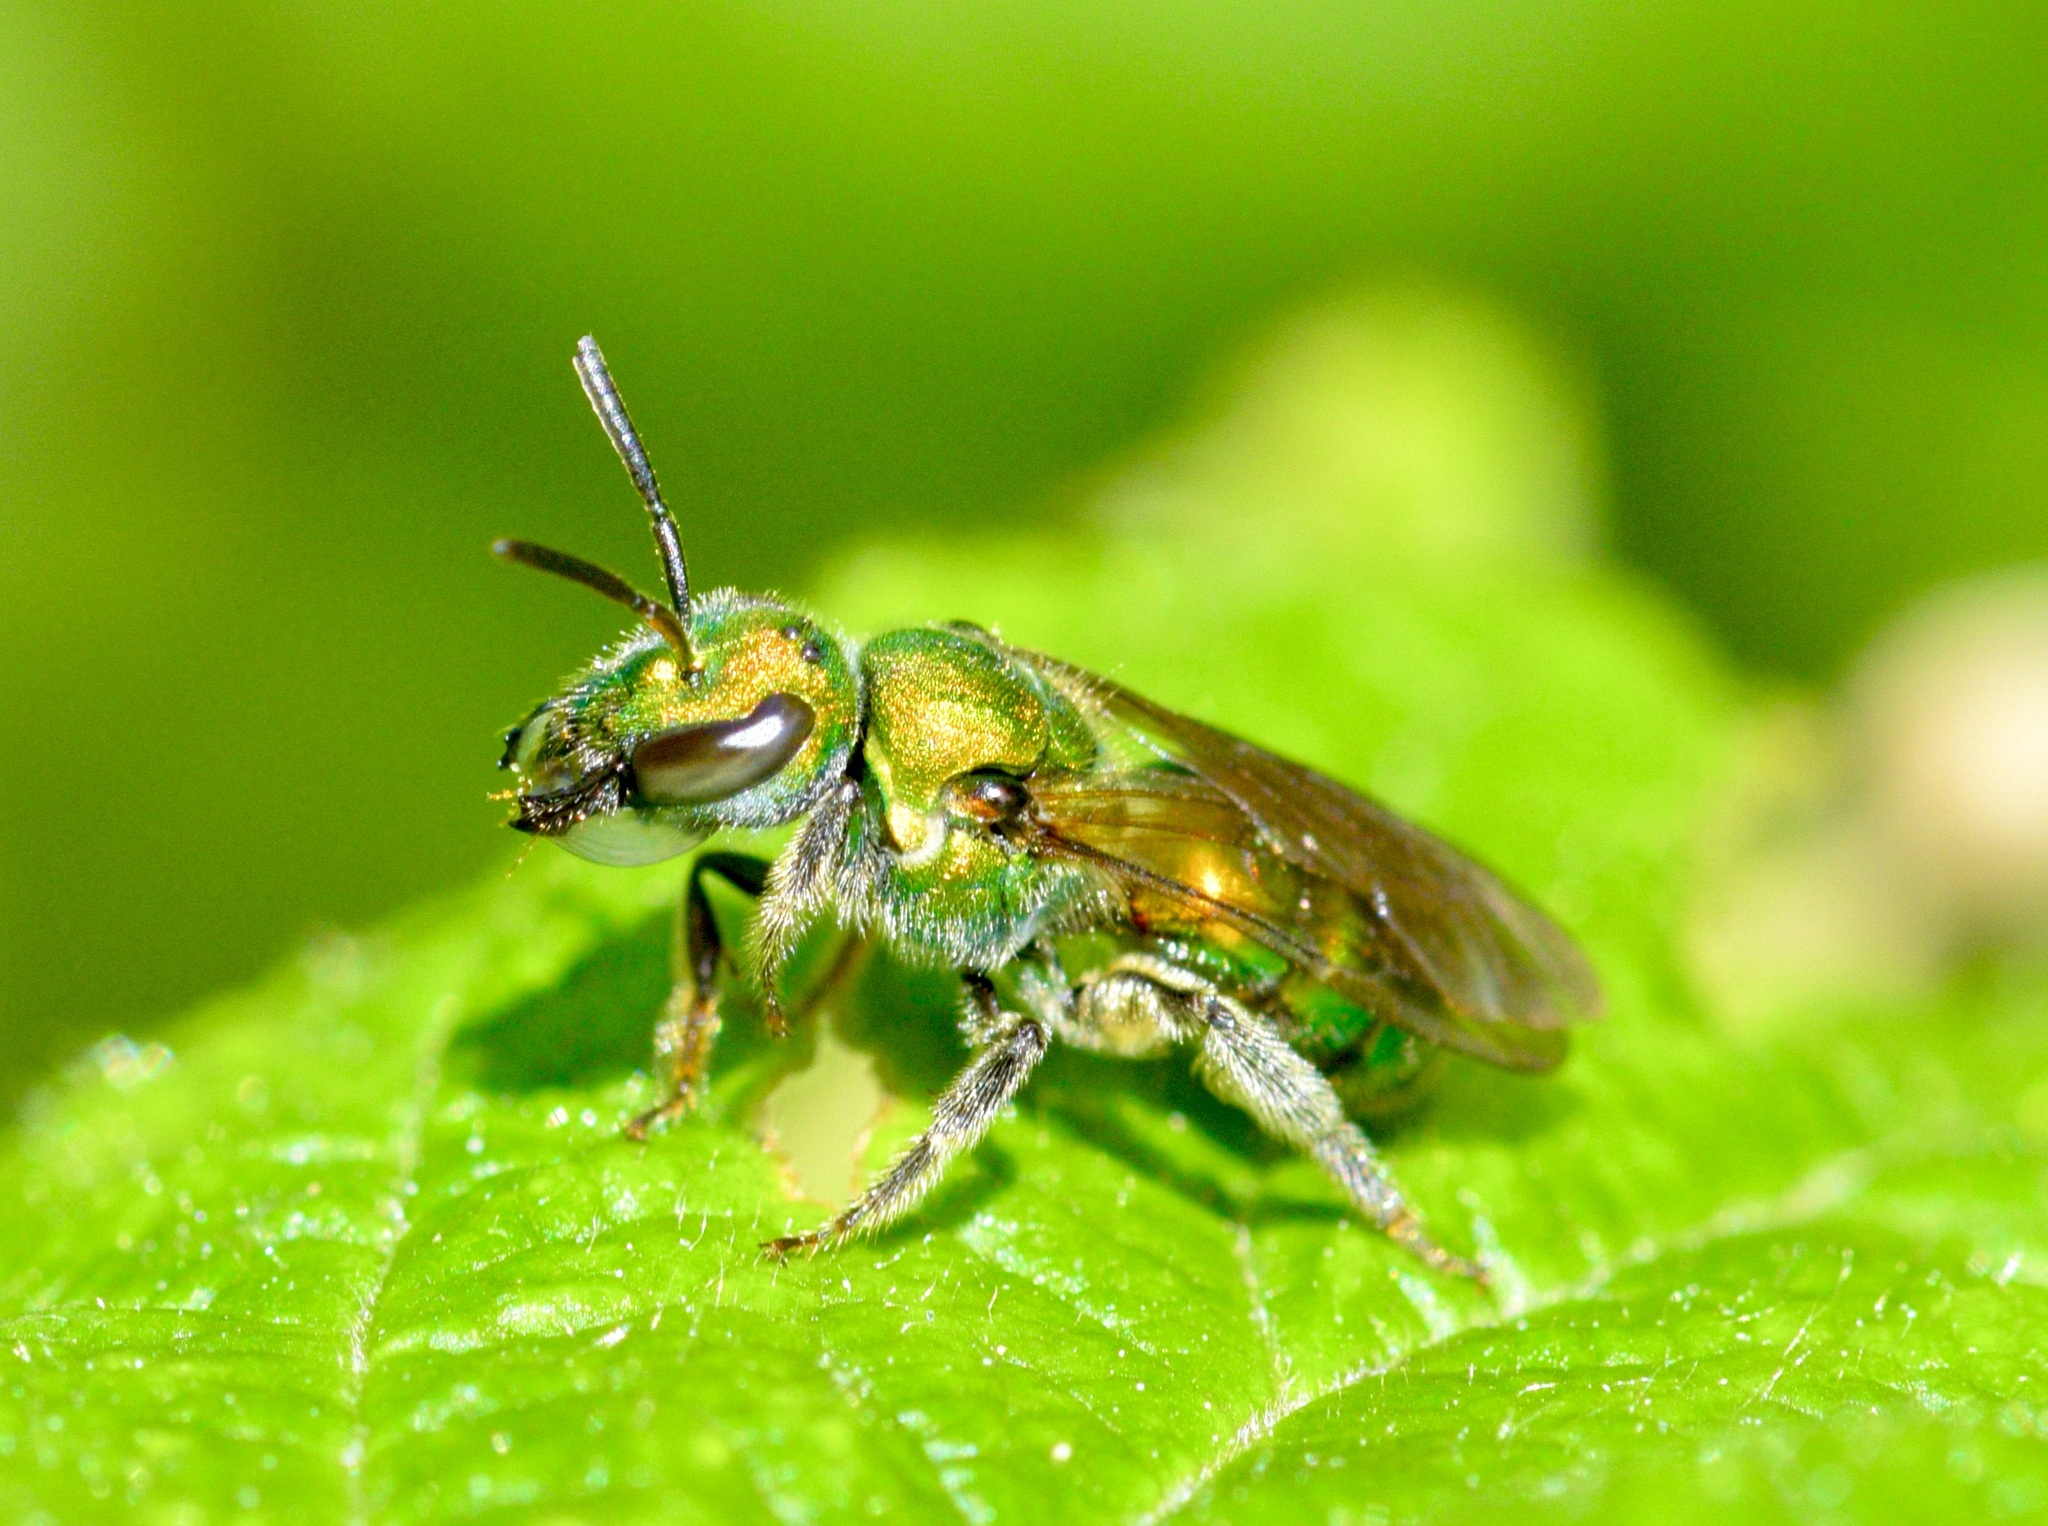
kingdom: Animalia
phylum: Arthropoda
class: Insecta
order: Hymenoptera
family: Halictidae
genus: Augochlora
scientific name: Augochlora pura
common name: Pure green sweat bee
